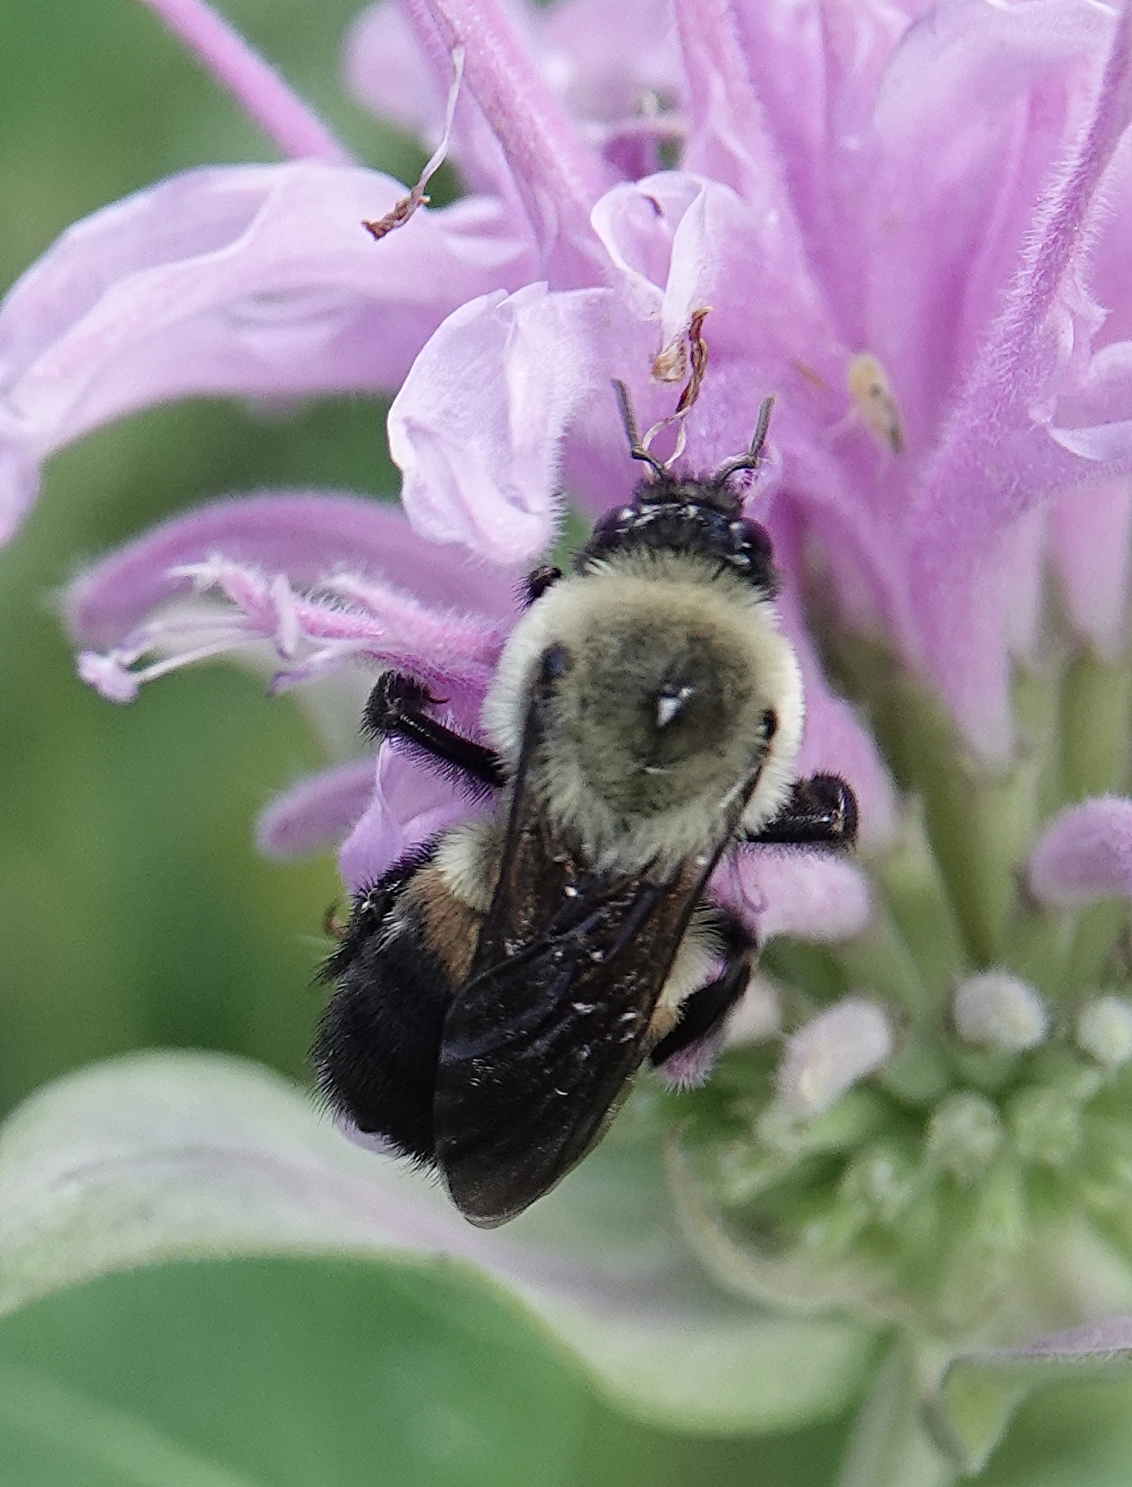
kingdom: Animalia
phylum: Arthropoda
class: Insecta
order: Hymenoptera
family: Apidae
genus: Bombus
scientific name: Bombus griseocollis
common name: Brown-belted bumble bee
